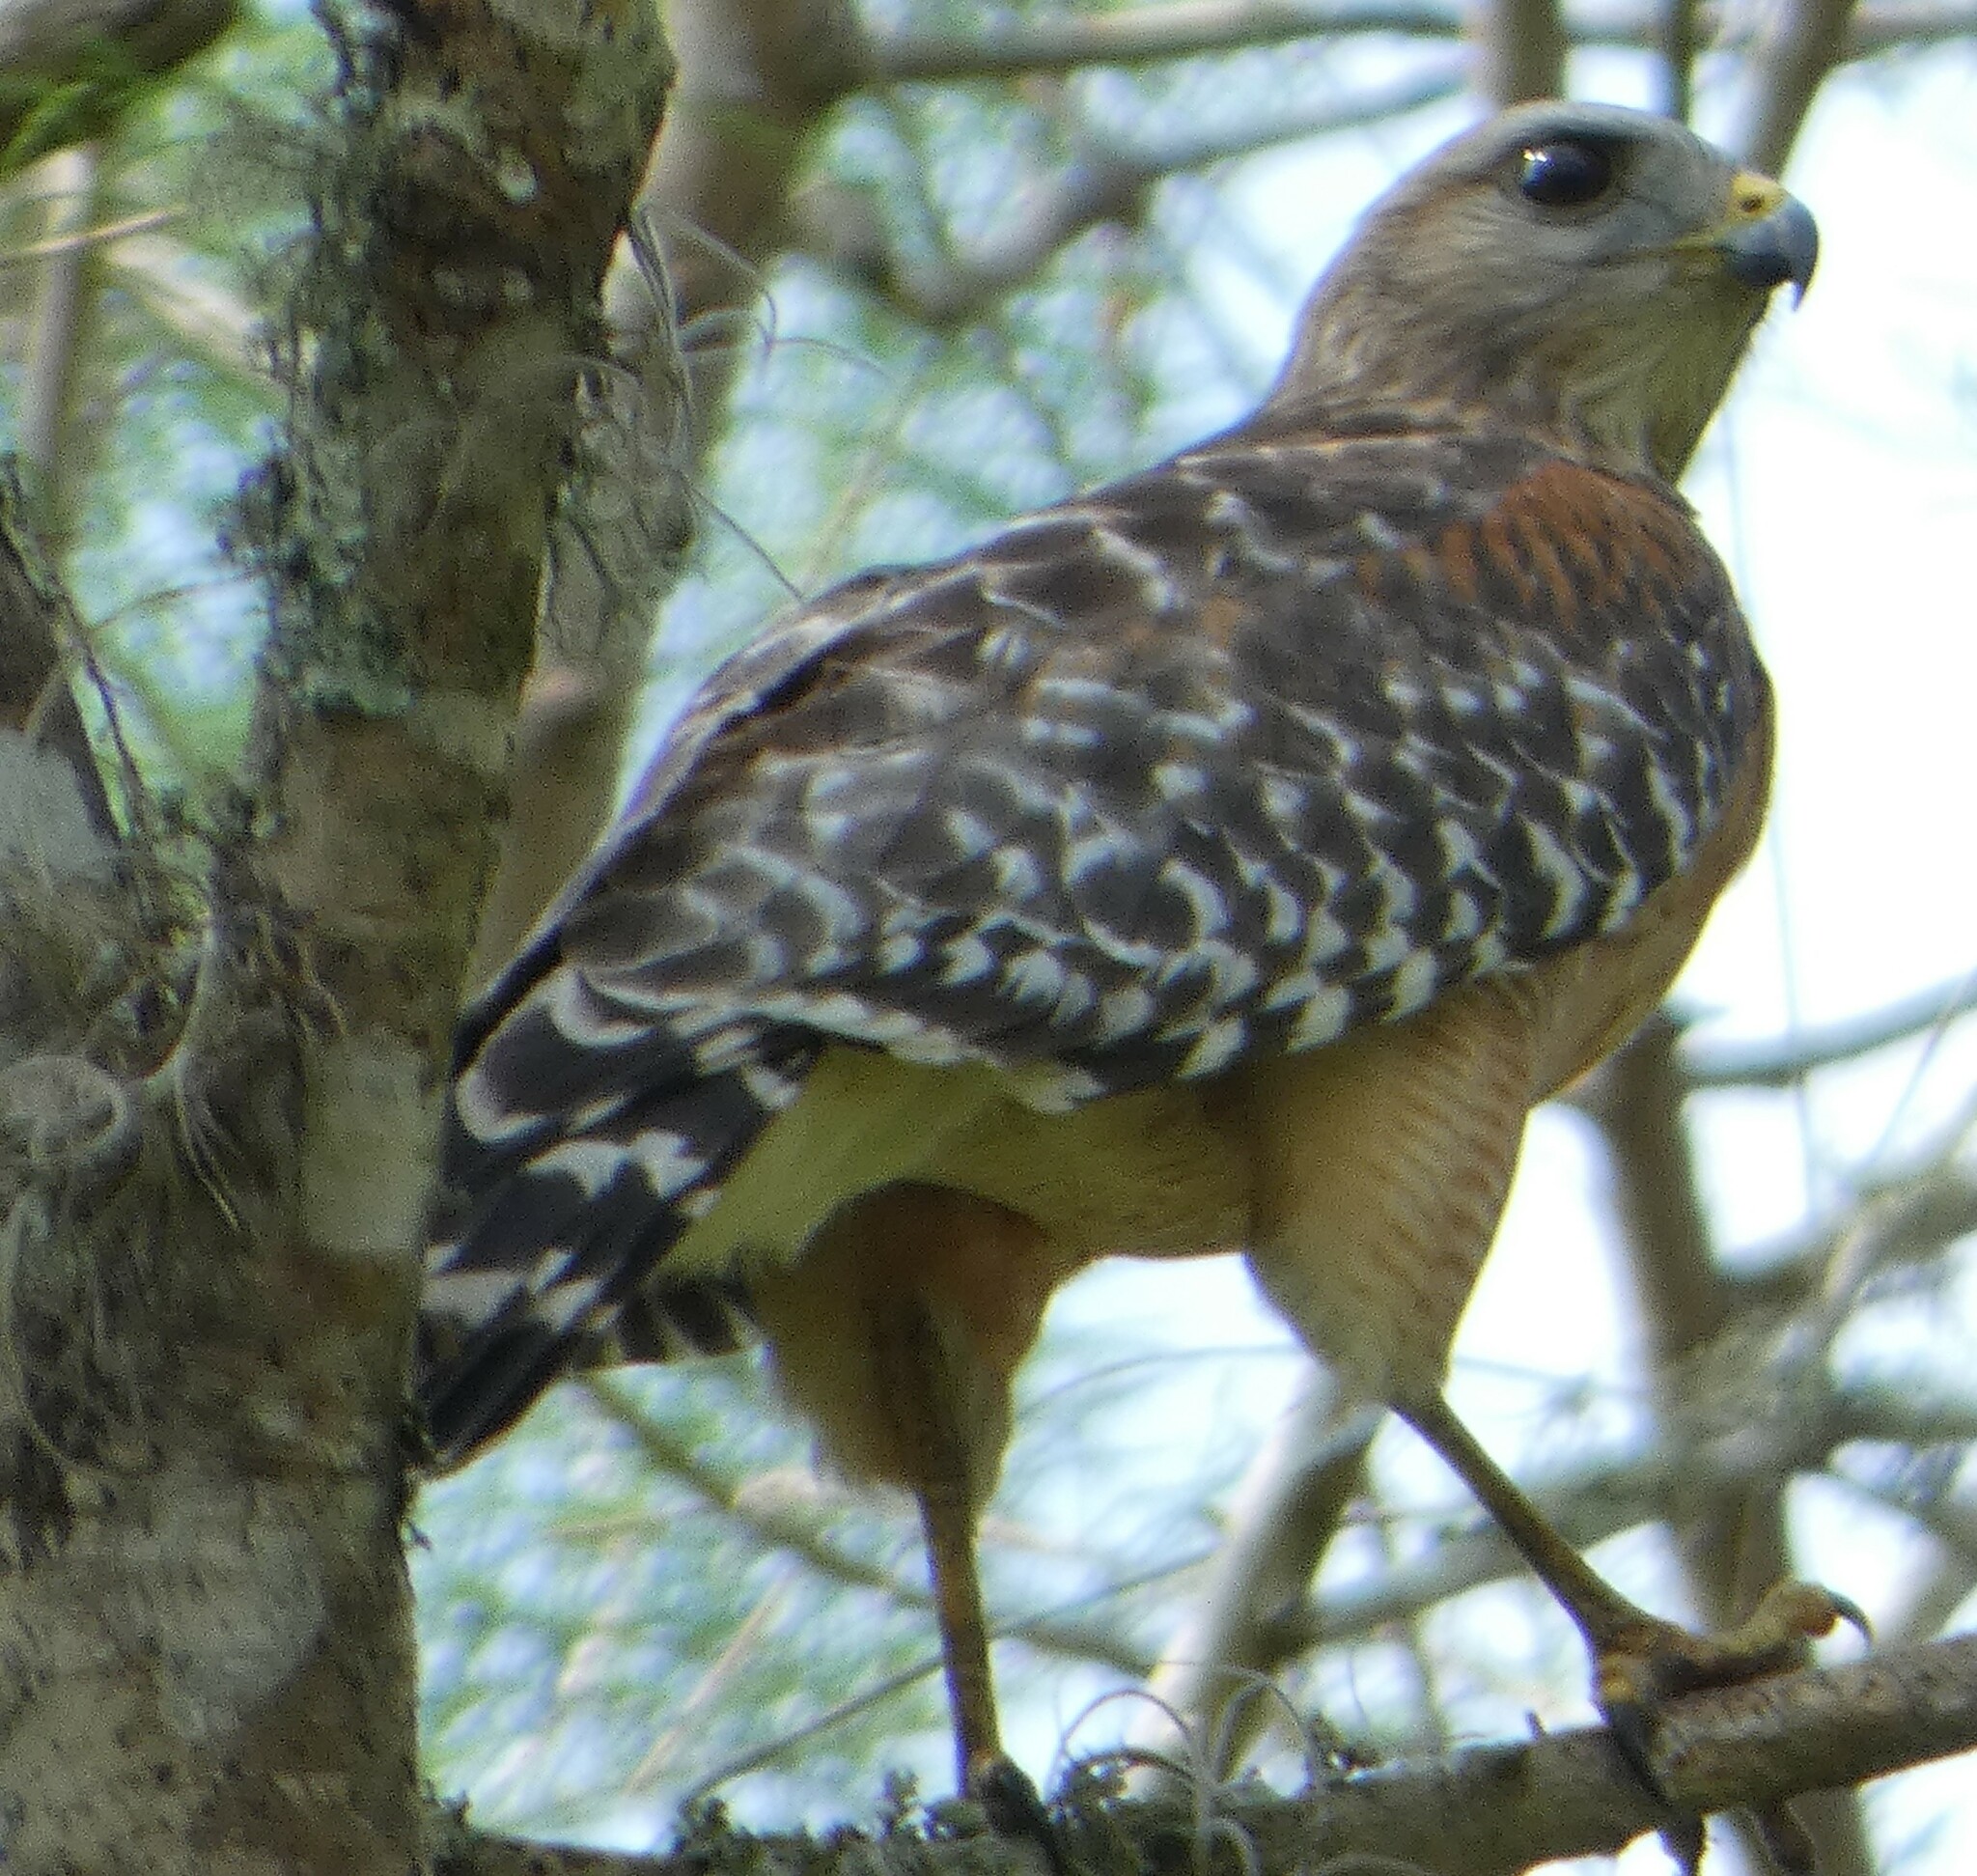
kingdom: Animalia
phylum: Chordata
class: Aves
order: Accipitriformes
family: Accipitridae
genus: Buteo
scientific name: Buteo lineatus
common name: Red-shouldered hawk
